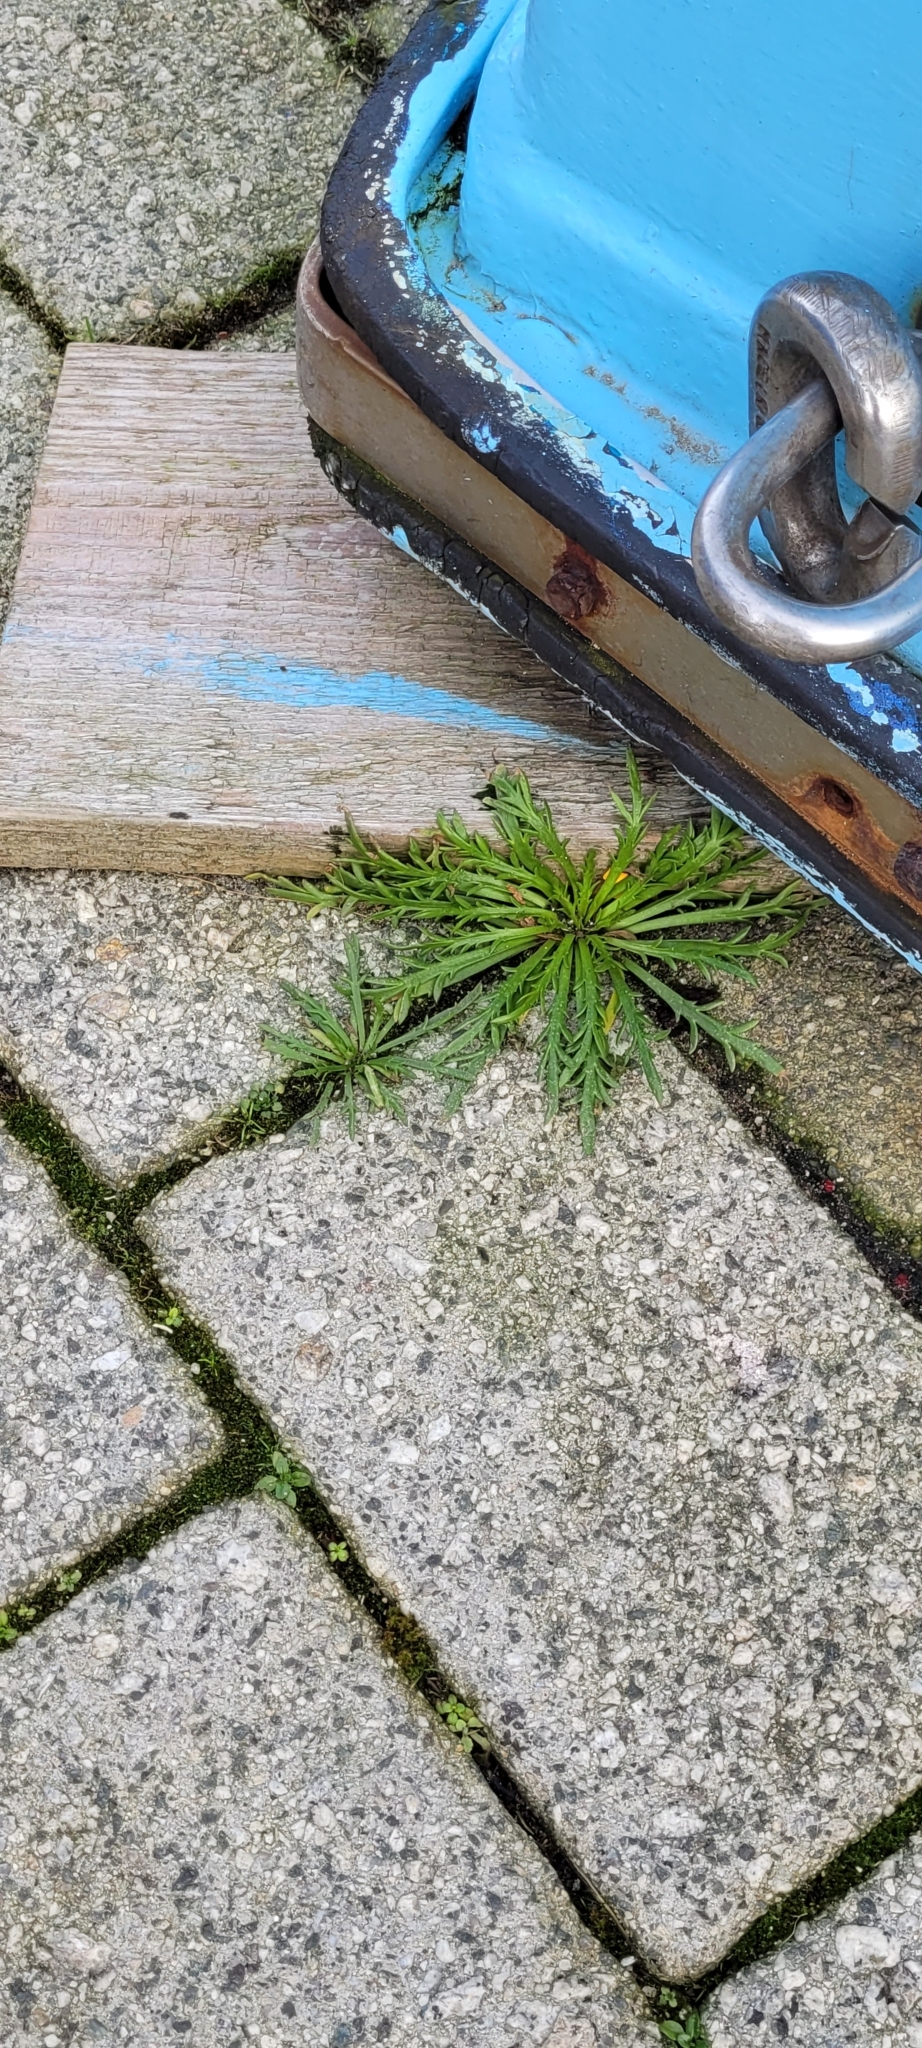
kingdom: Plantae
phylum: Tracheophyta
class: Magnoliopsida
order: Lamiales
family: Plantaginaceae
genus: Plantago
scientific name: Plantago coronopus
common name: Buck's-horn plantain
